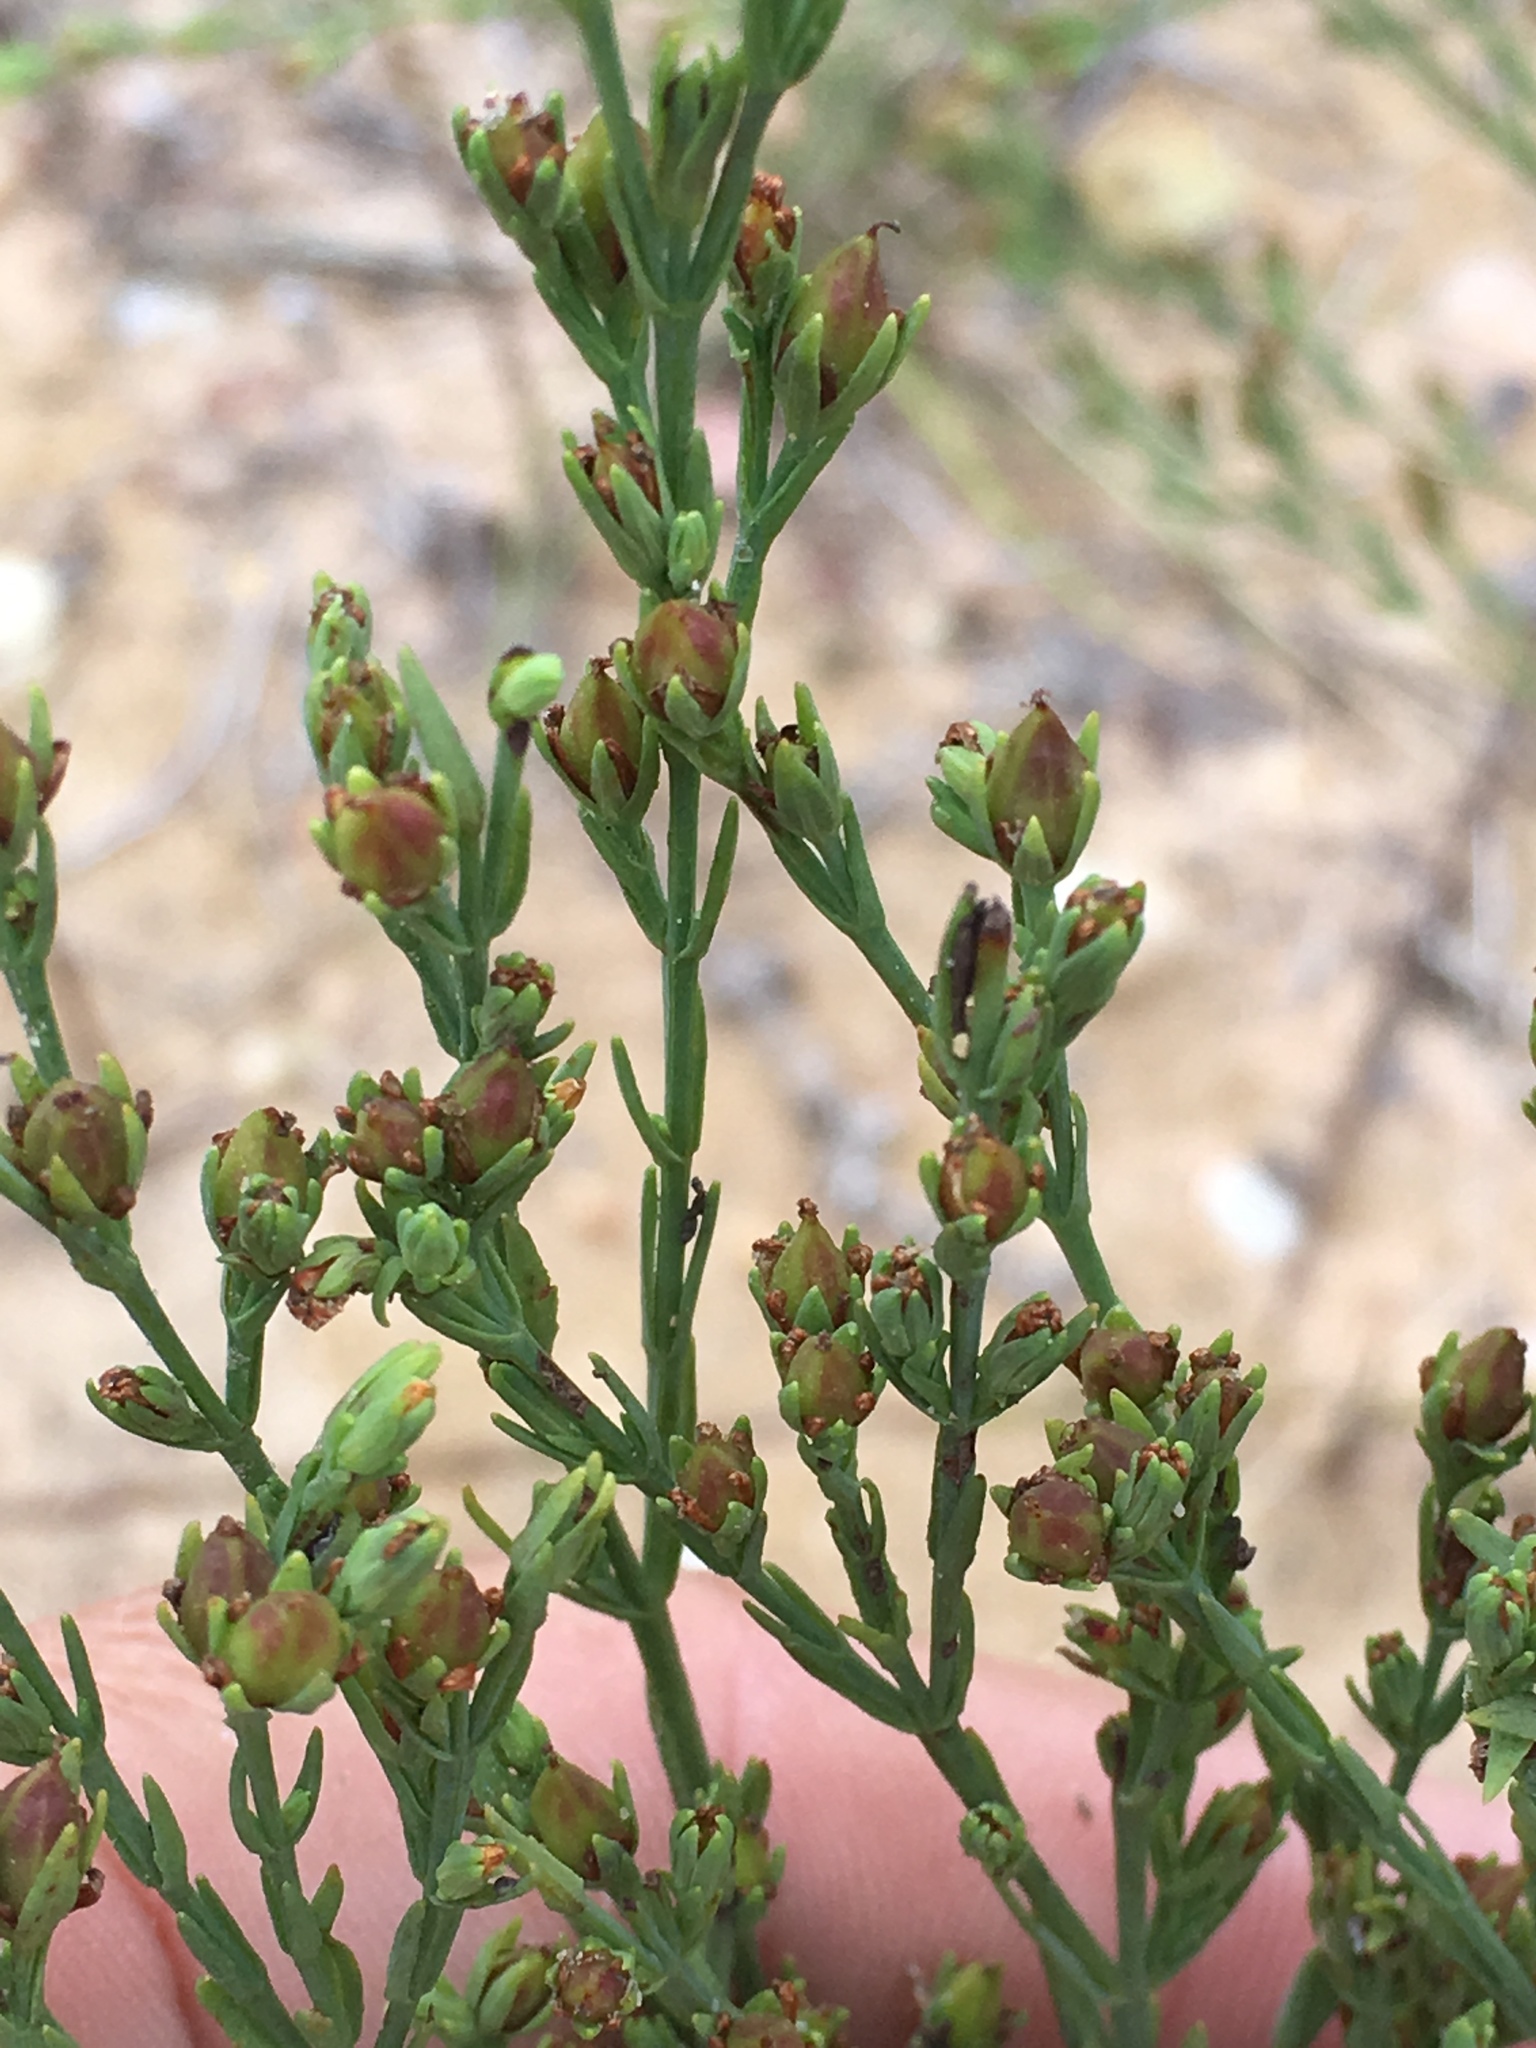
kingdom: Plantae
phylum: Tracheophyta
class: Magnoliopsida
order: Malpighiales
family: Hypericaceae
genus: Hypericum
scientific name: Hypericum drummondii
